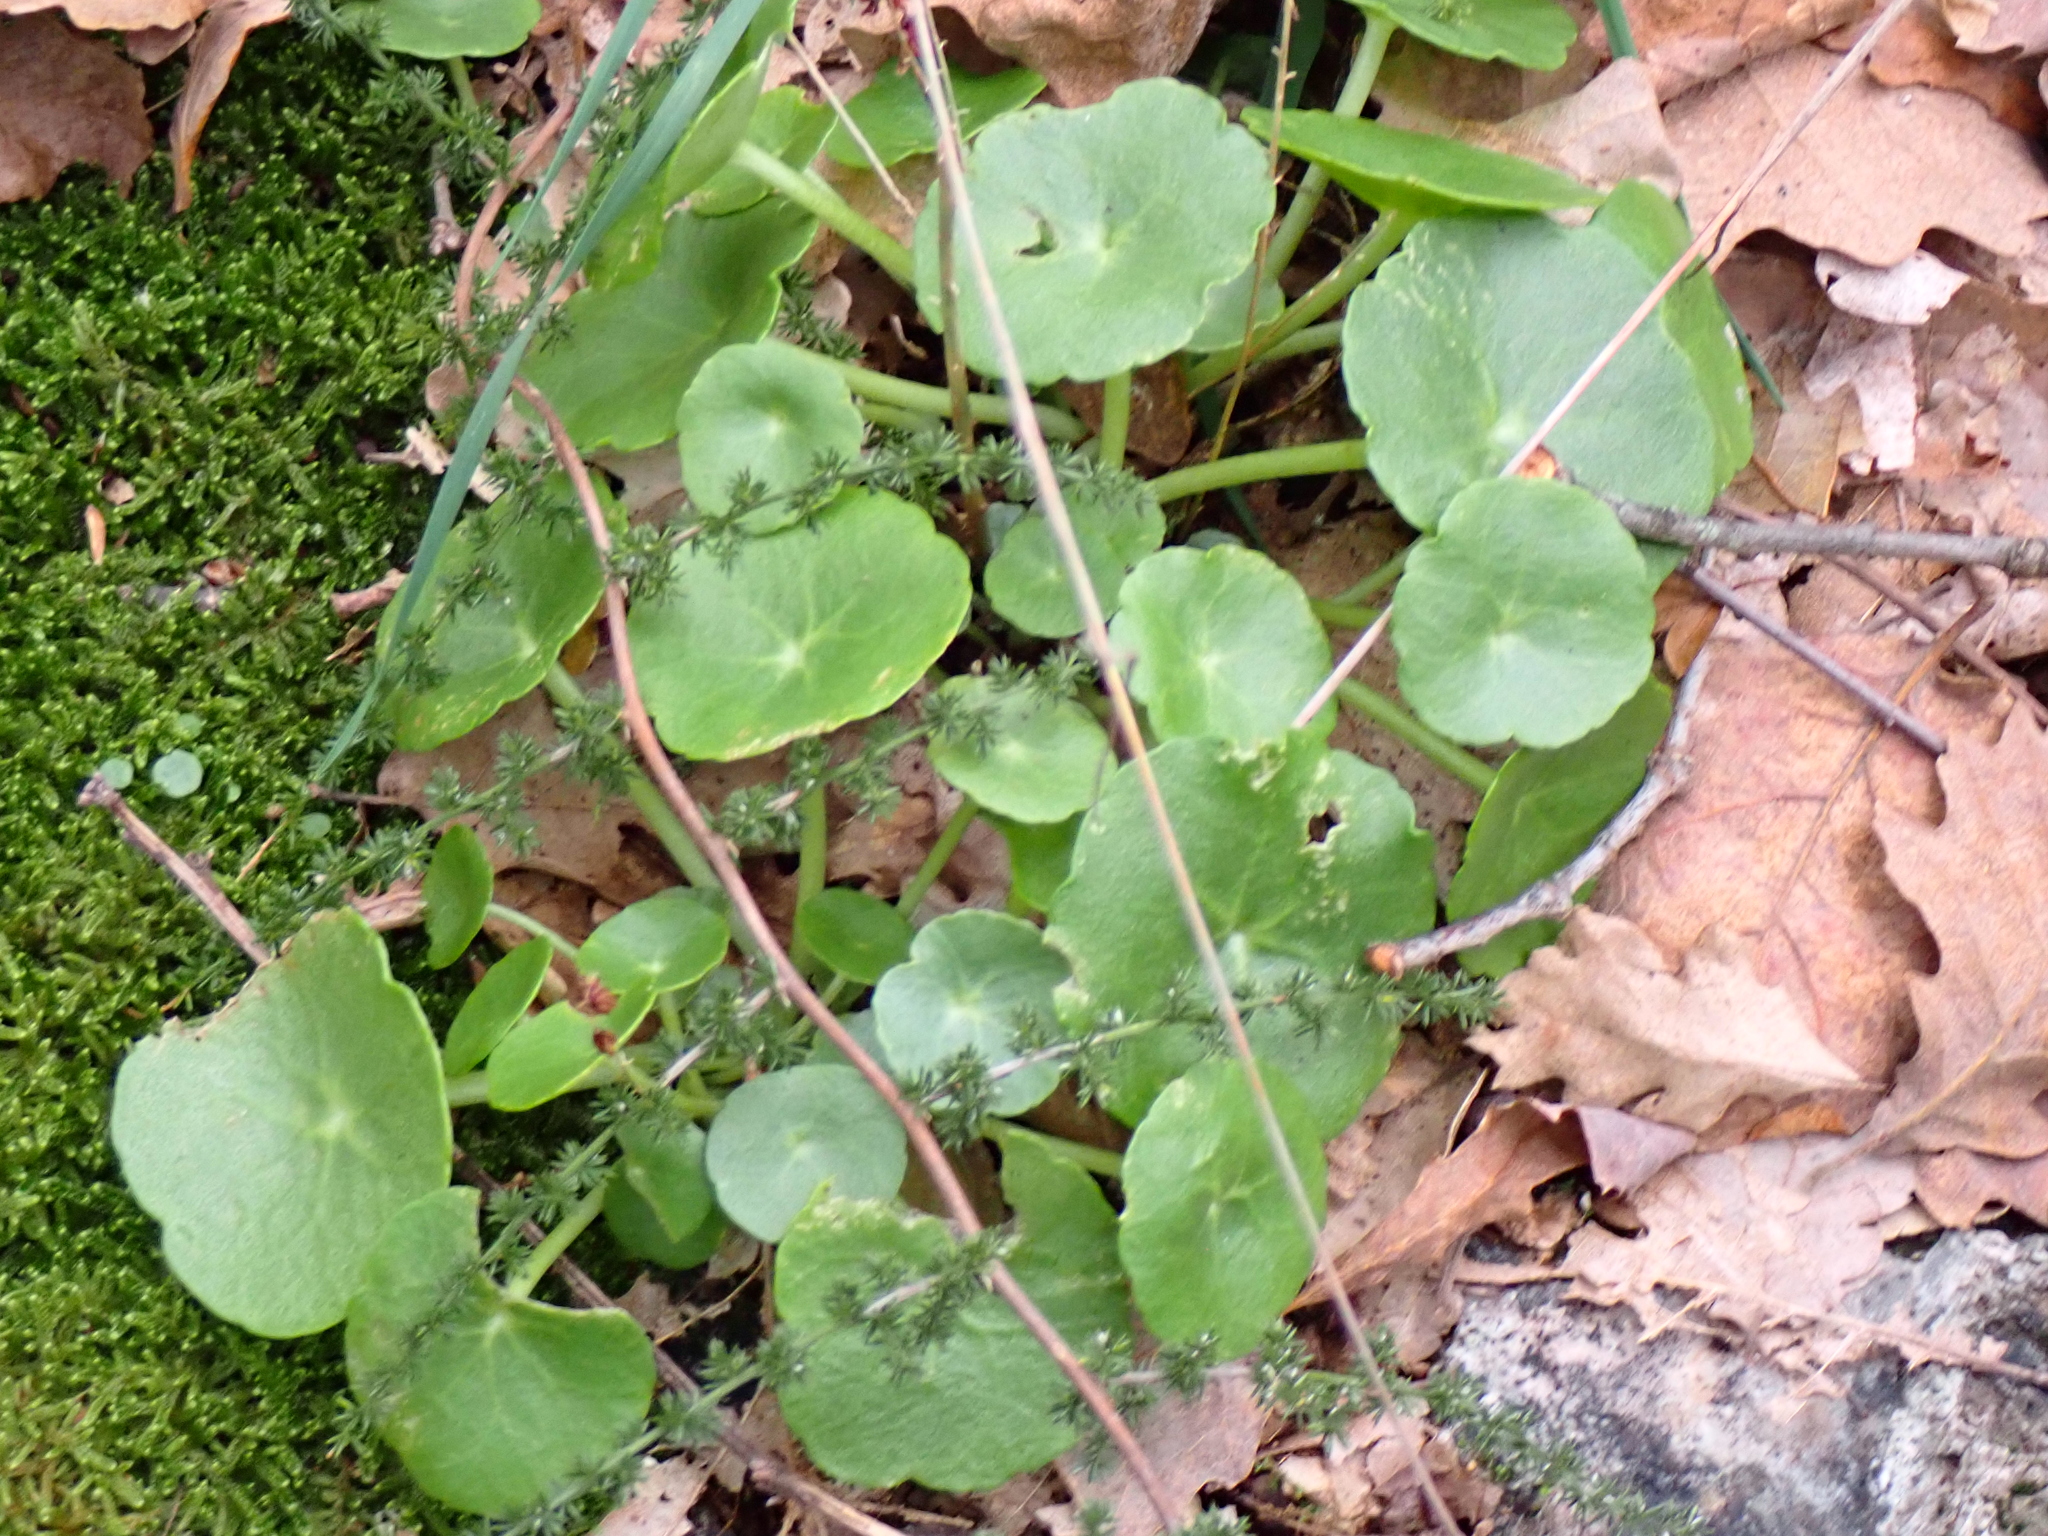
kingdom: Plantae
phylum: Tracheophyta
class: Magnoliopsida
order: Saxifragales
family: Crassulaceae
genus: Umbilicus
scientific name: Umbilicus rupestris
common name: Navelwort
